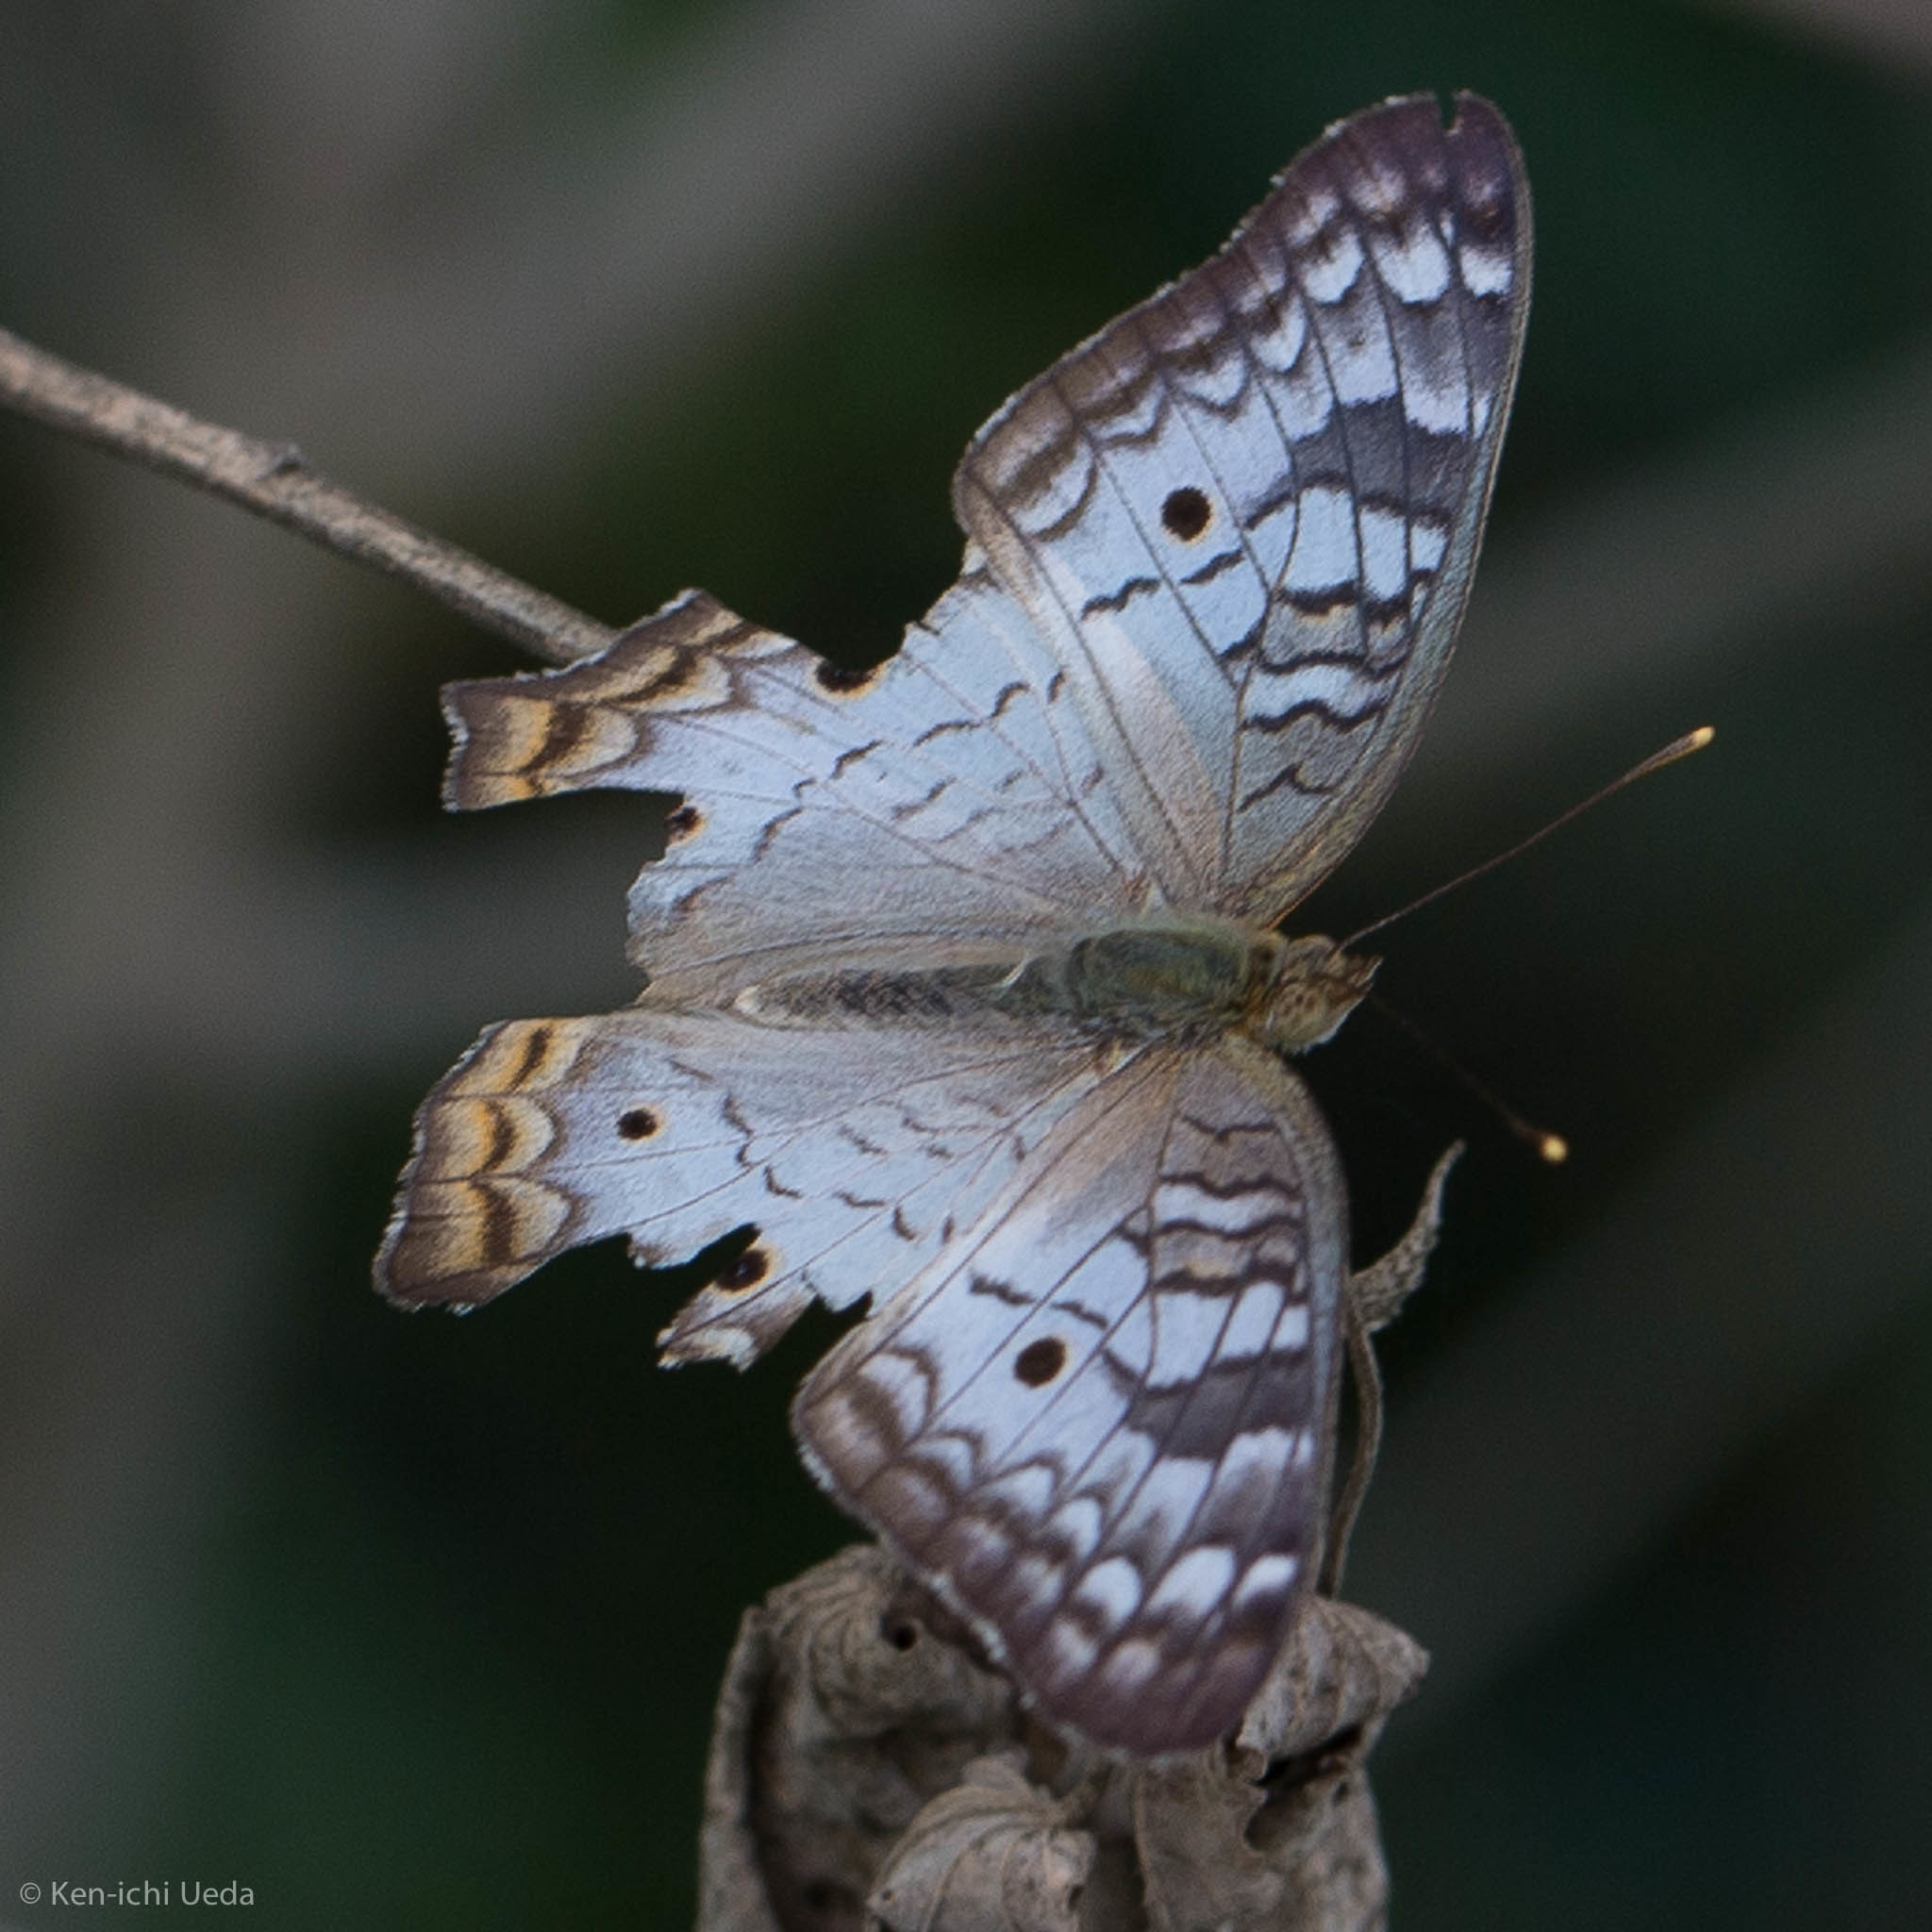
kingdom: Animalia
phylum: Arthropoda
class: Insecta
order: Lepidoptera
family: Nymphalidae
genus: Anartia
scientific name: Anartia jatrophae
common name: White peacock
